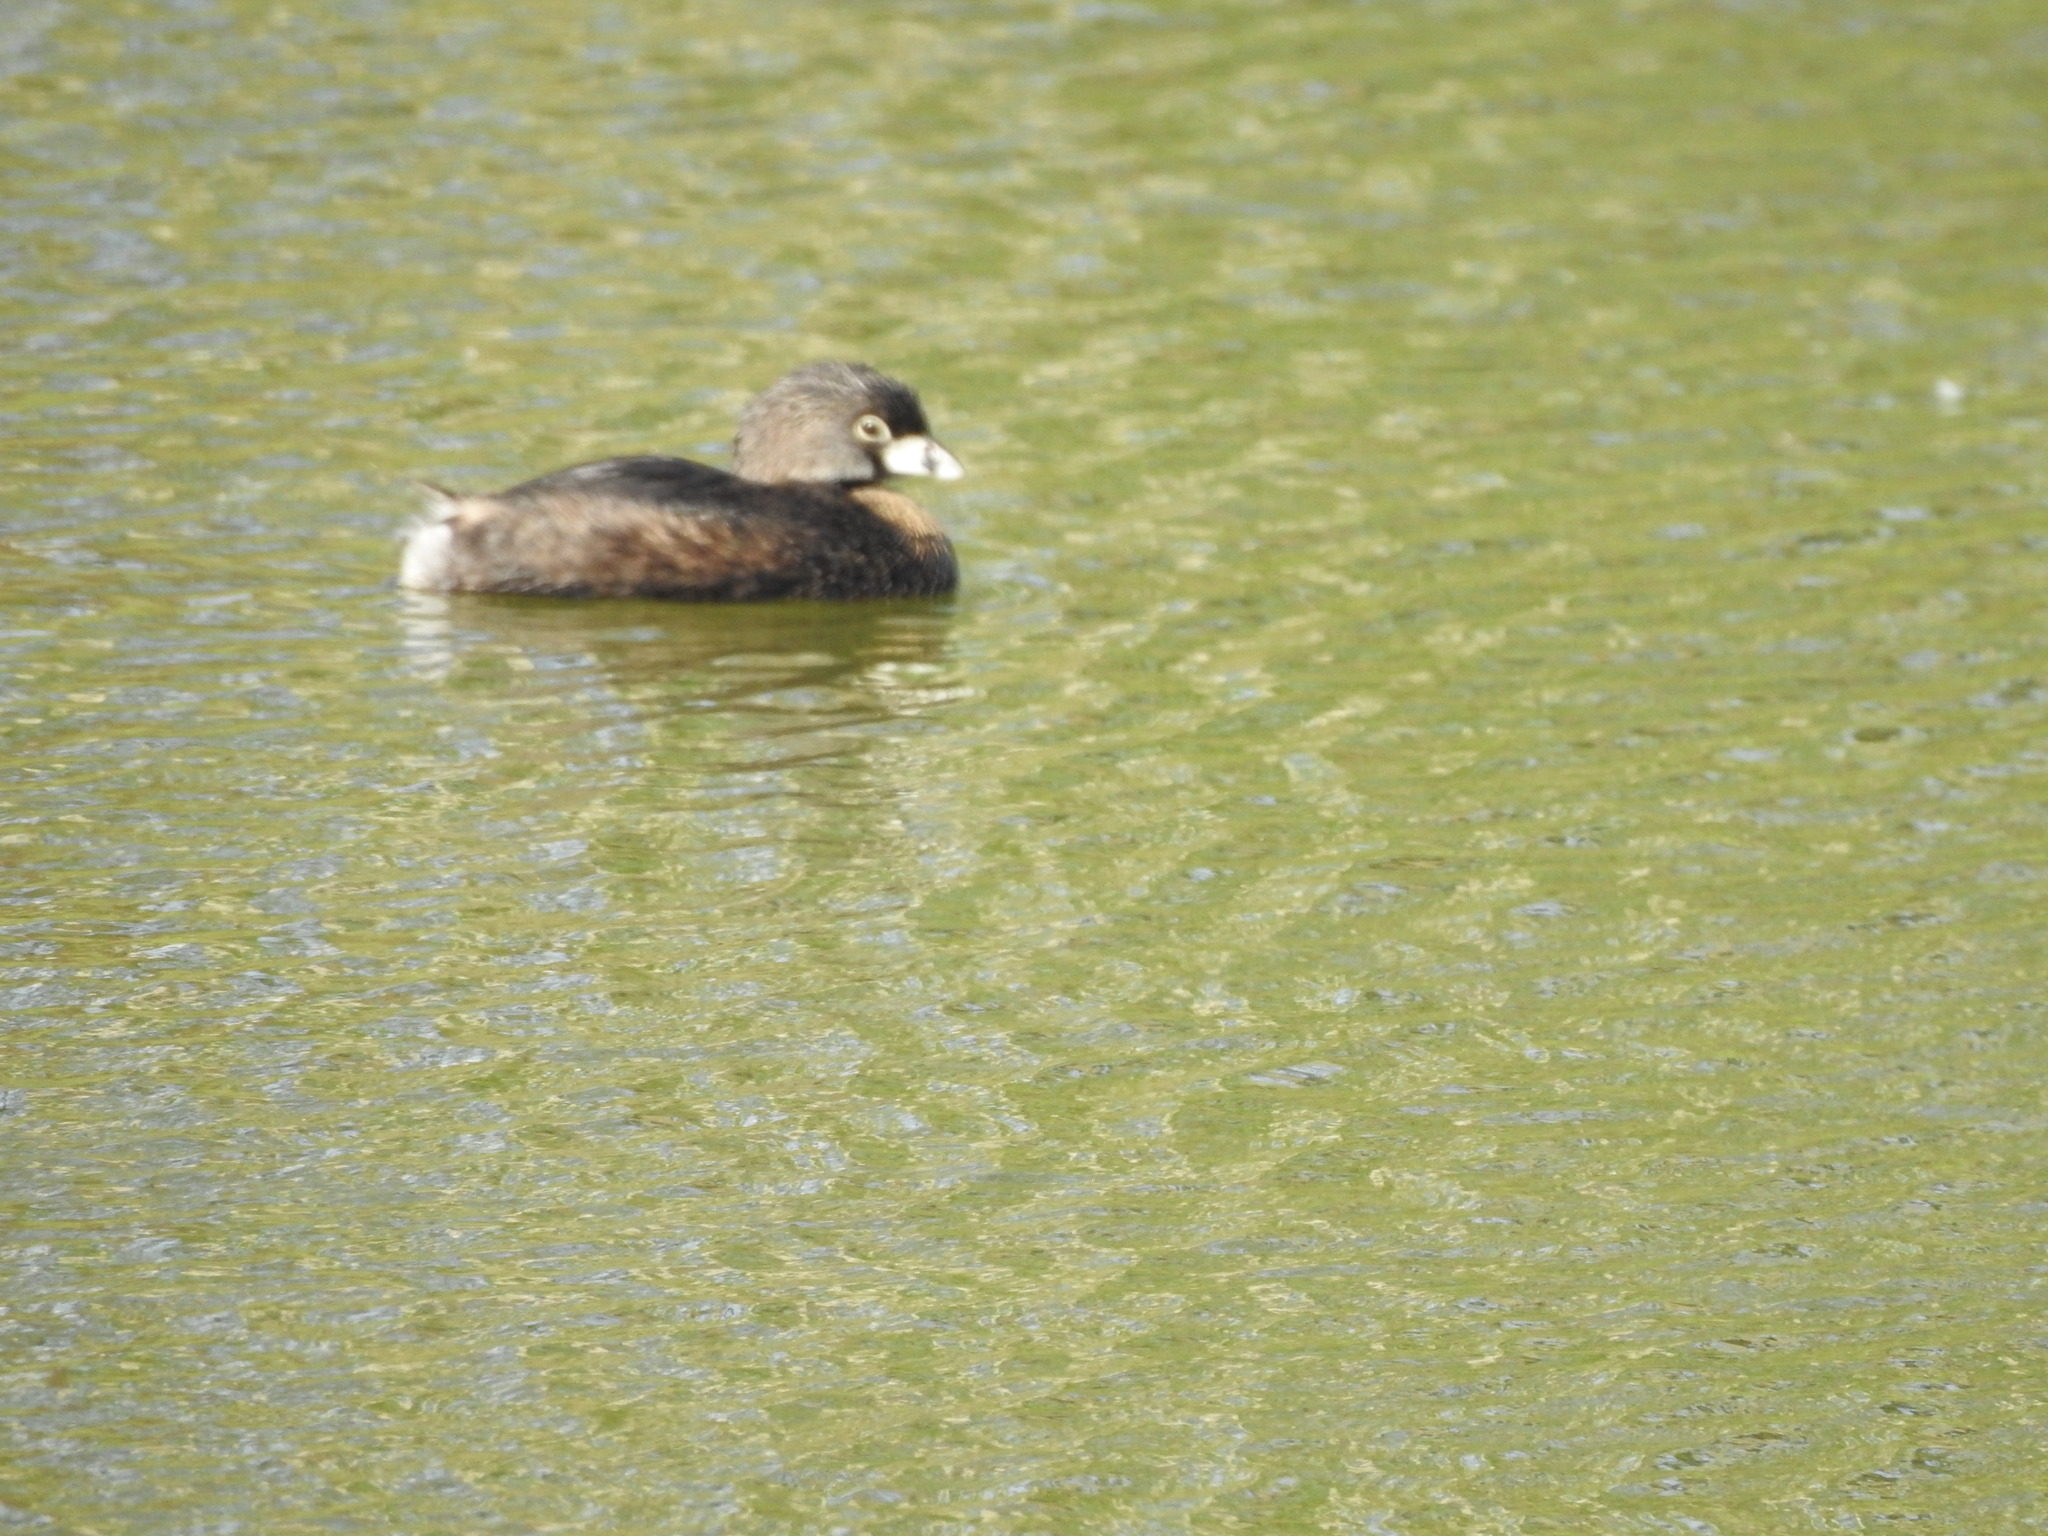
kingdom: Animalia
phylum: Chordata
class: Aves
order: Podicipediformes
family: Podicipedidae
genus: Podilymbus
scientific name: Podilymbus podiceps
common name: Pied-billed grebe
